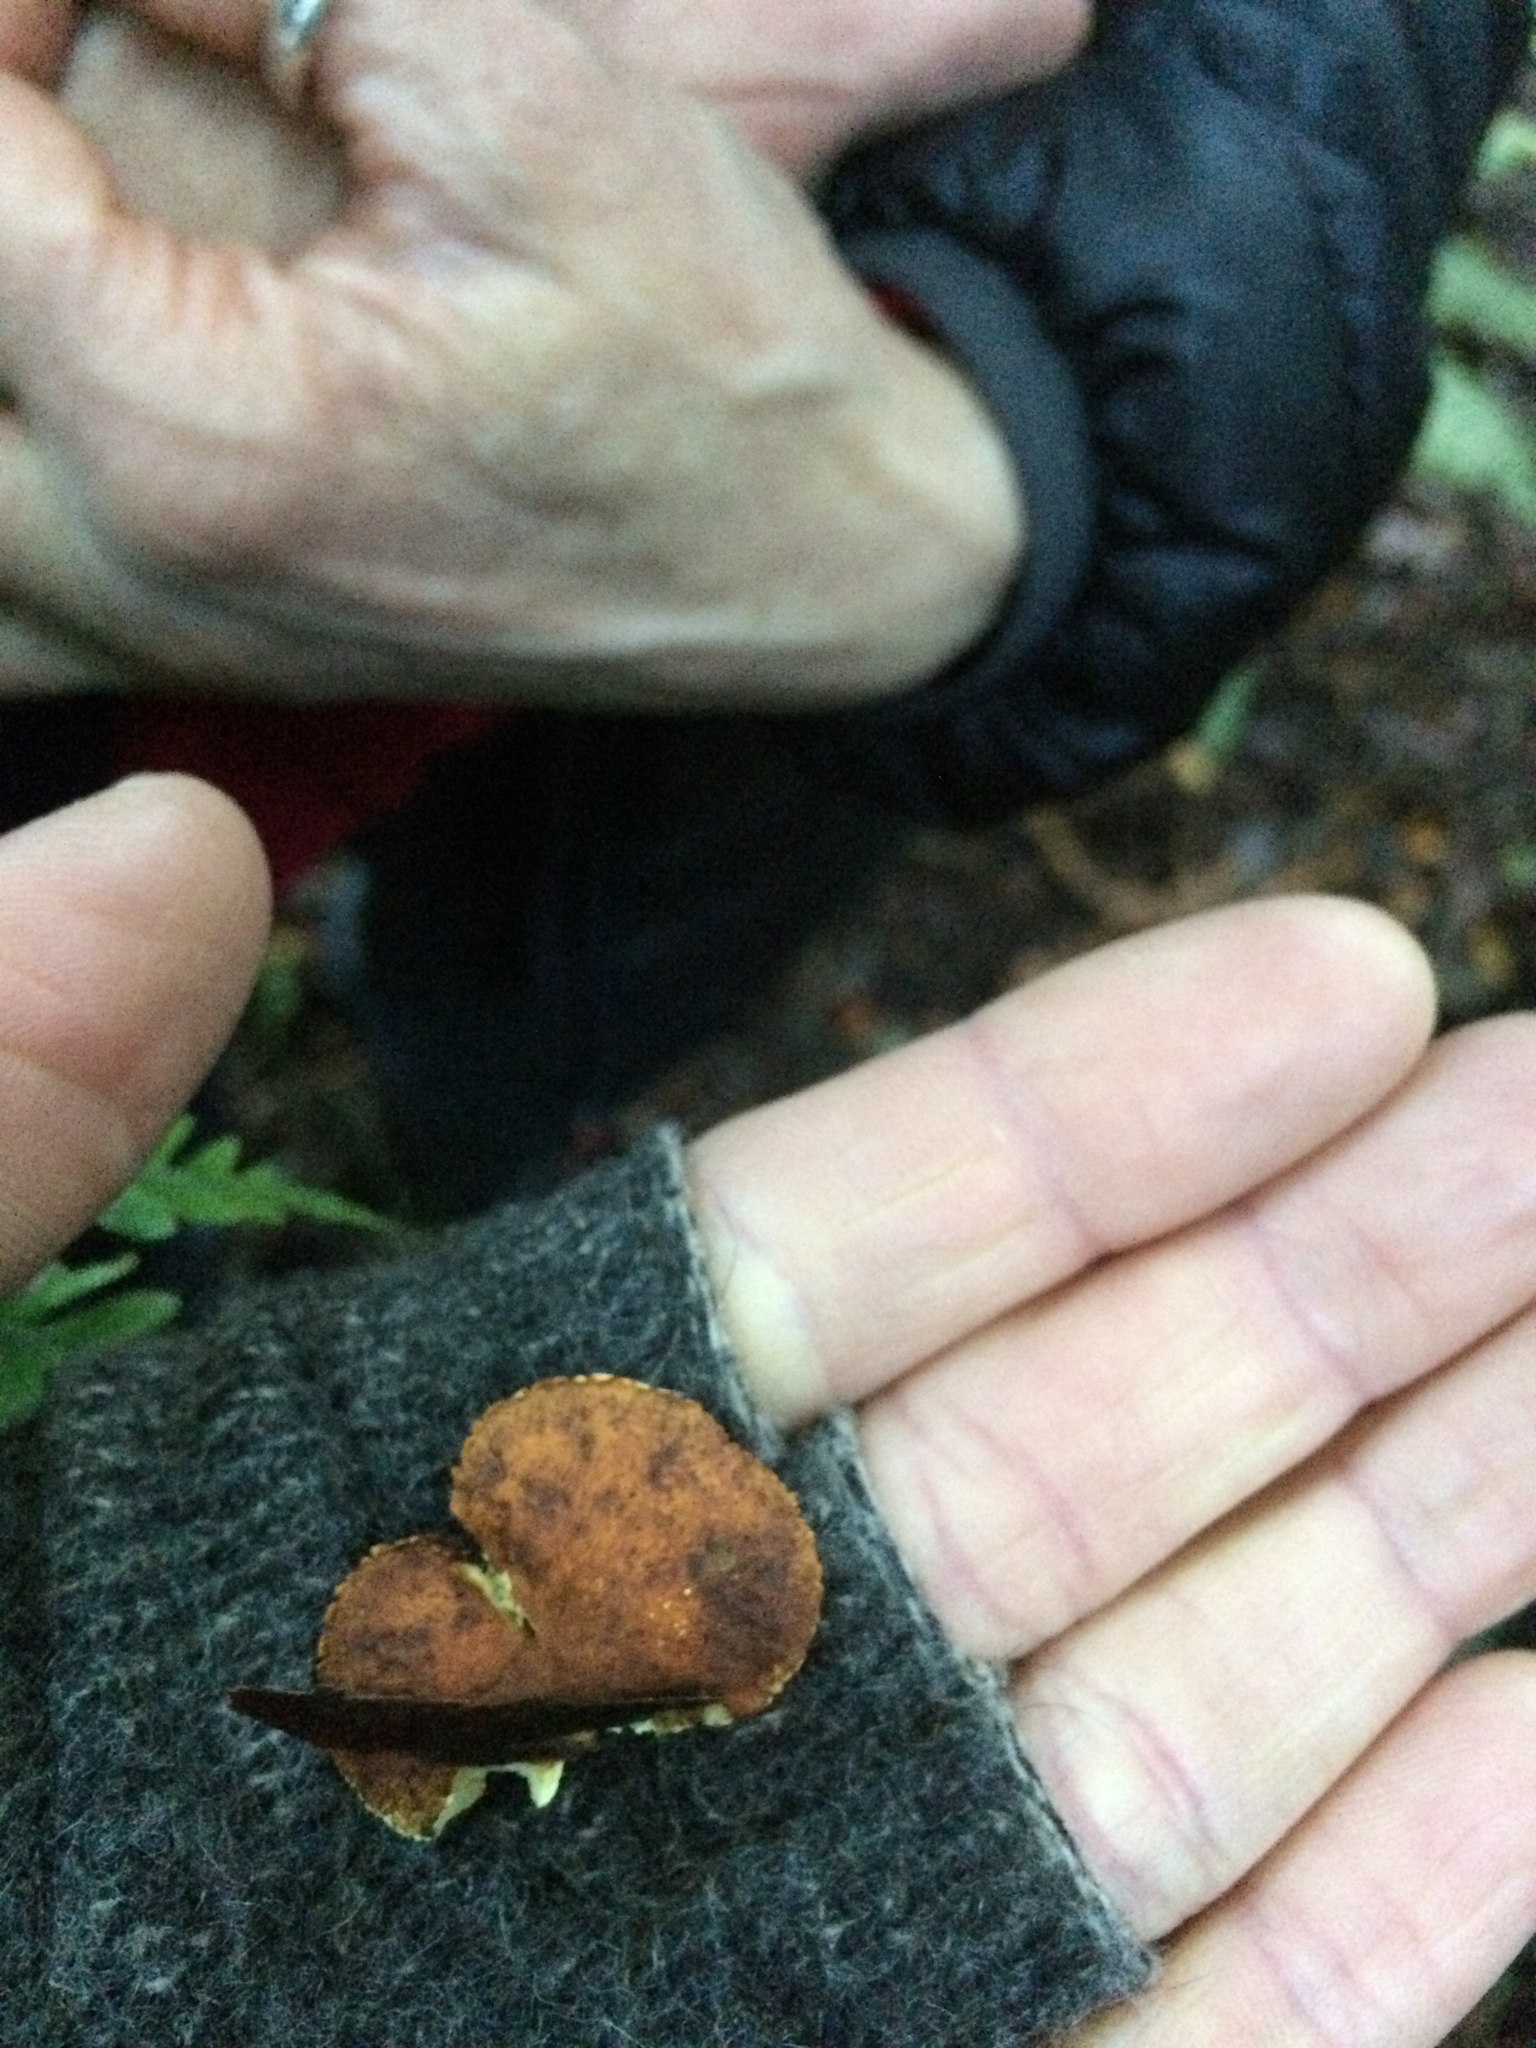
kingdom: Fungi
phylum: Basidiomycota
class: Agaricomycetes
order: Agaricales
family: Crepidotaceae
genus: Pleuroflammula
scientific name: Pleuroflammula praestans
